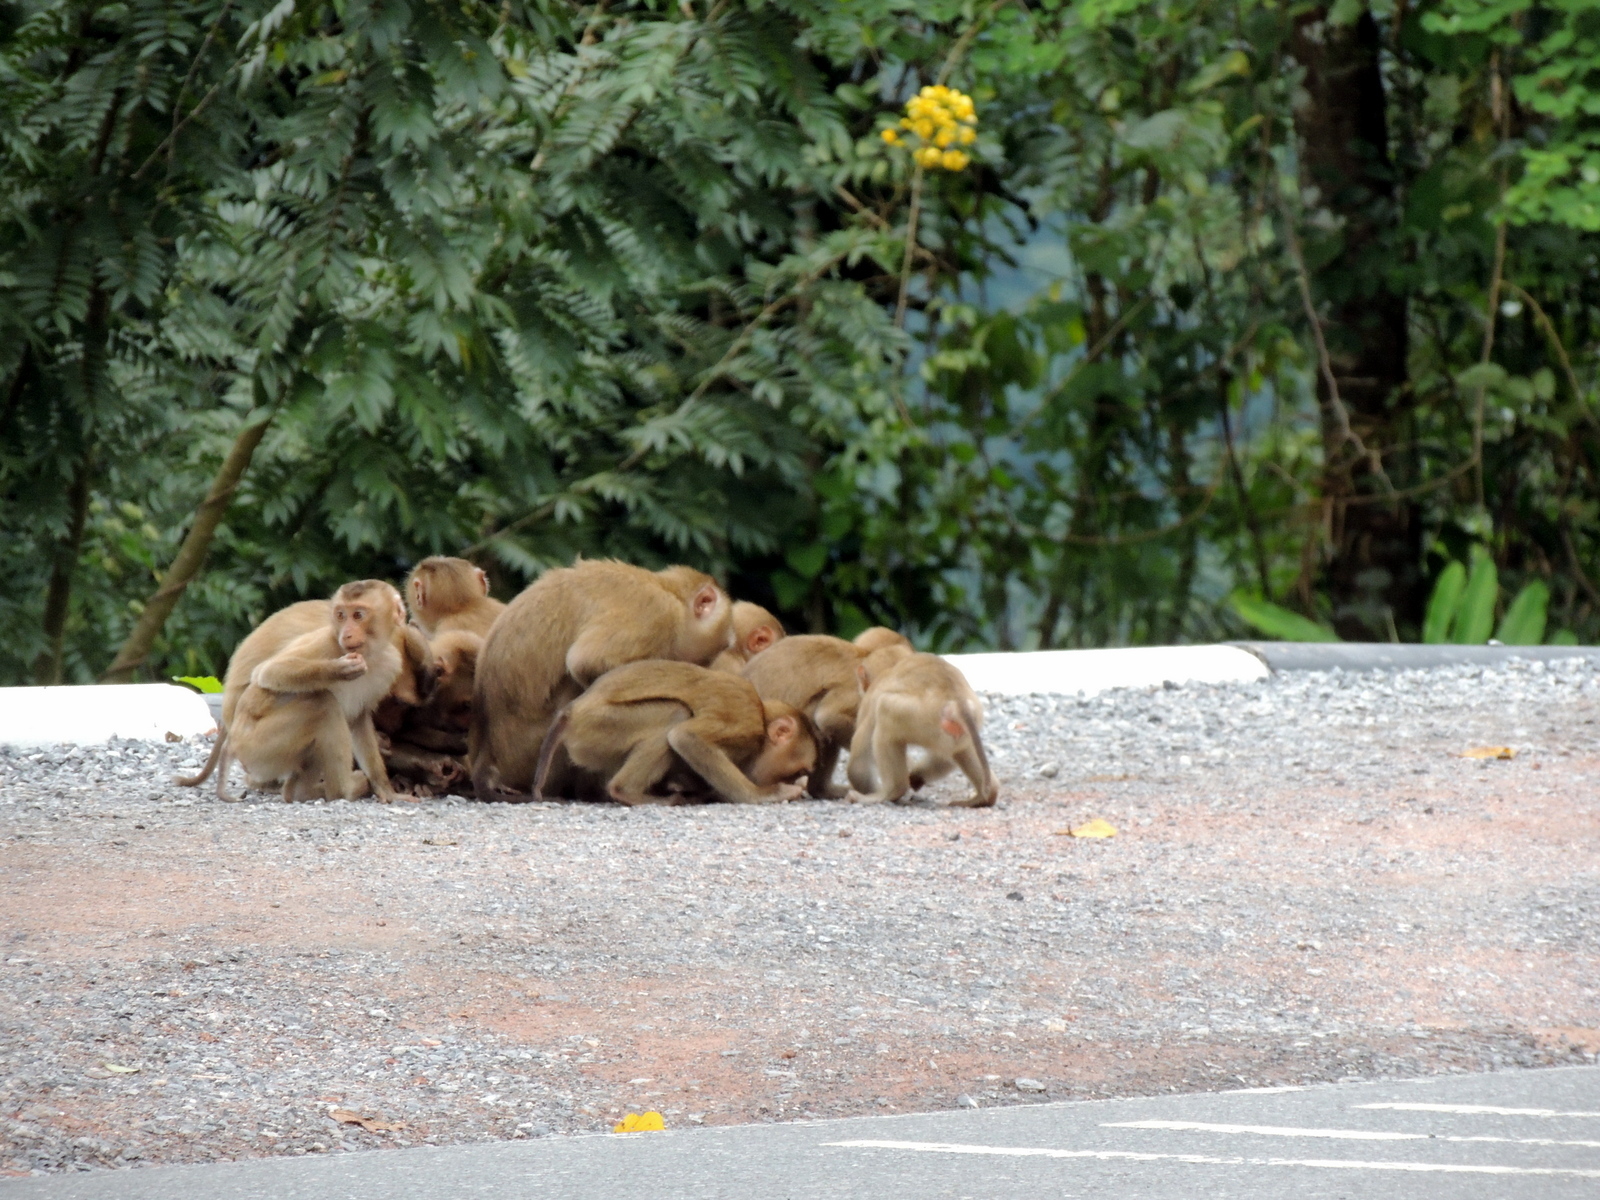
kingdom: Animalia
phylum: Chordata
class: Mammalia
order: Primates
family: Cercopithecidae
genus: Macaca
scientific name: Macaca leonina
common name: Northern pig-tailed macaque
